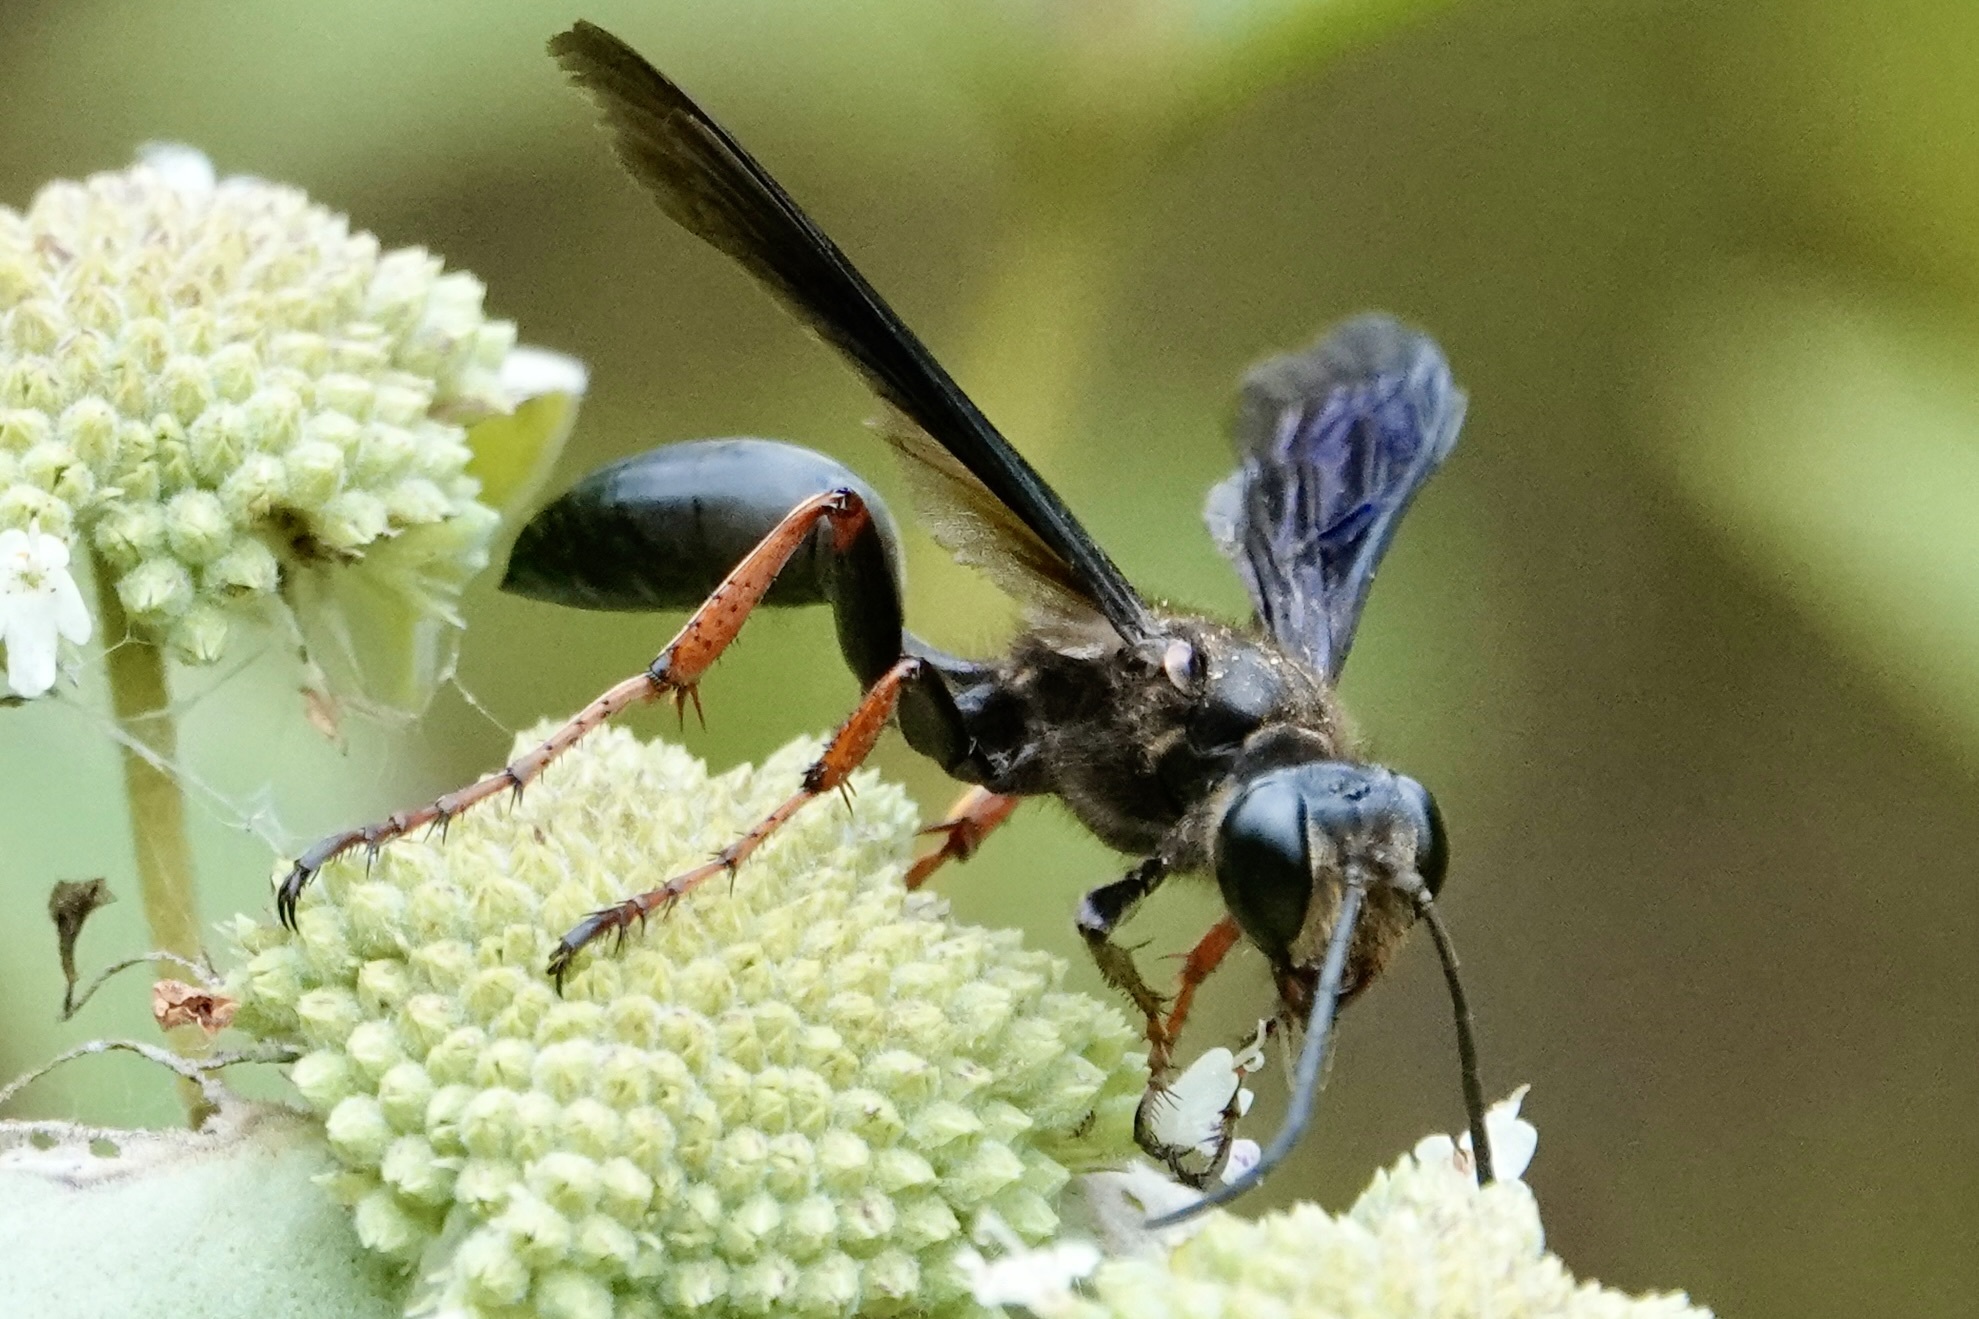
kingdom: Animalia
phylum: Arthropoda
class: Insecta
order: Hymenoptera
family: Sphecidae
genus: Isodontia
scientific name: Isodontia auripes
